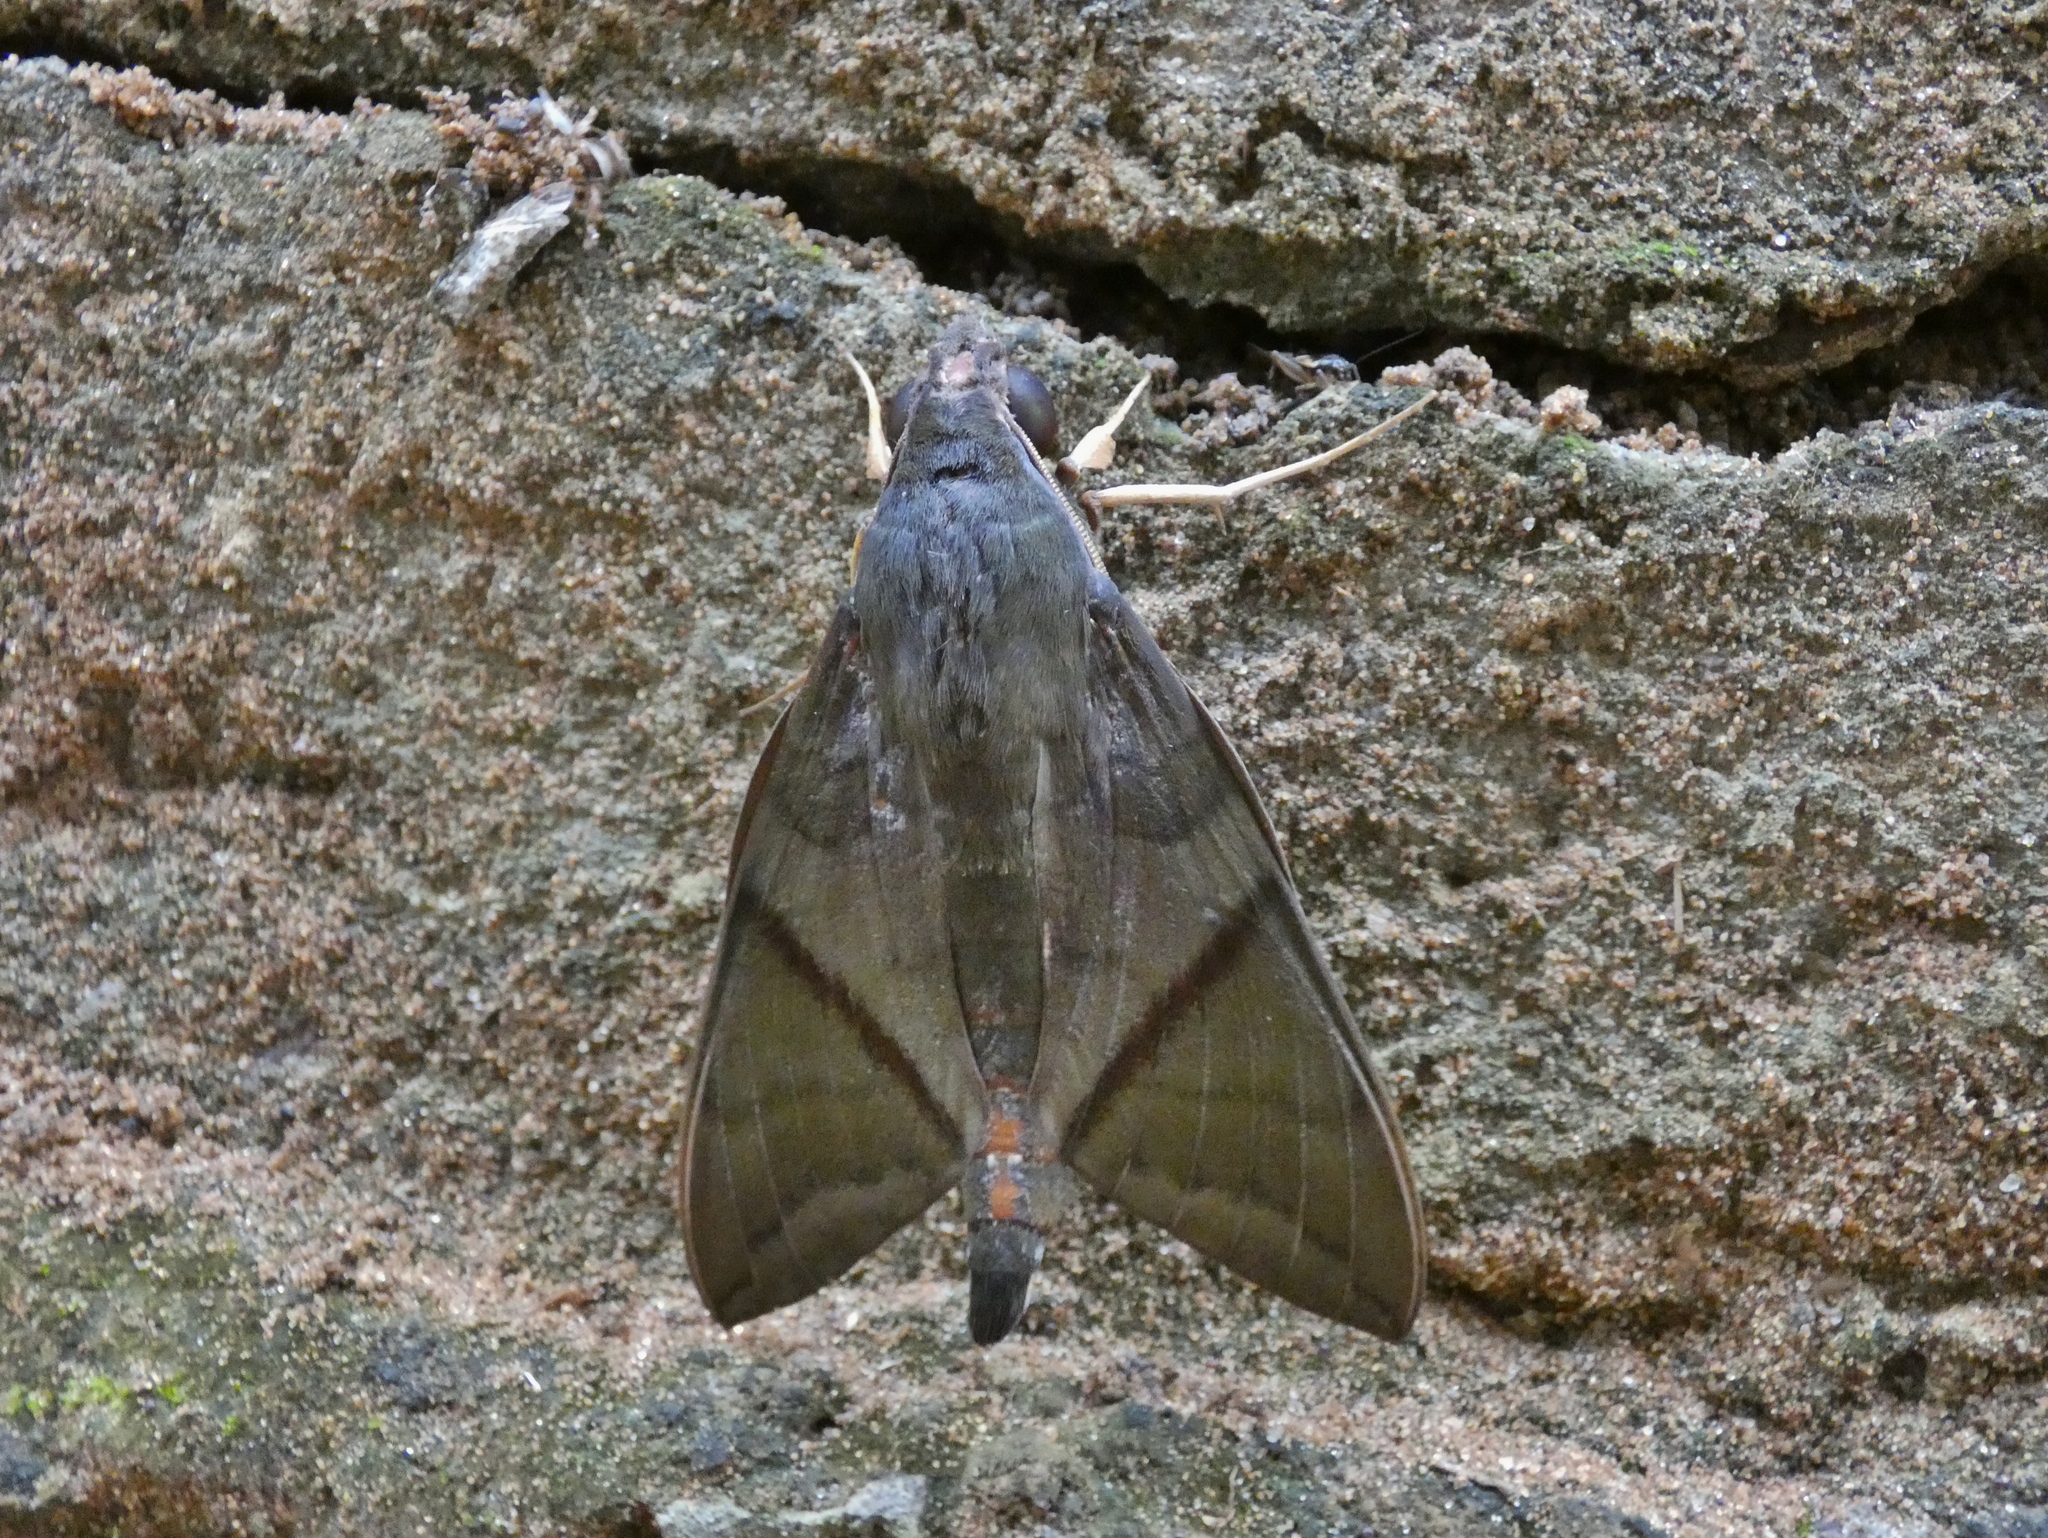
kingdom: Animalia
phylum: Arthropoda
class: Insecta
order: Lepidoptera
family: Sphingidae
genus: Nephele
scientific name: Nephele aequivalens
